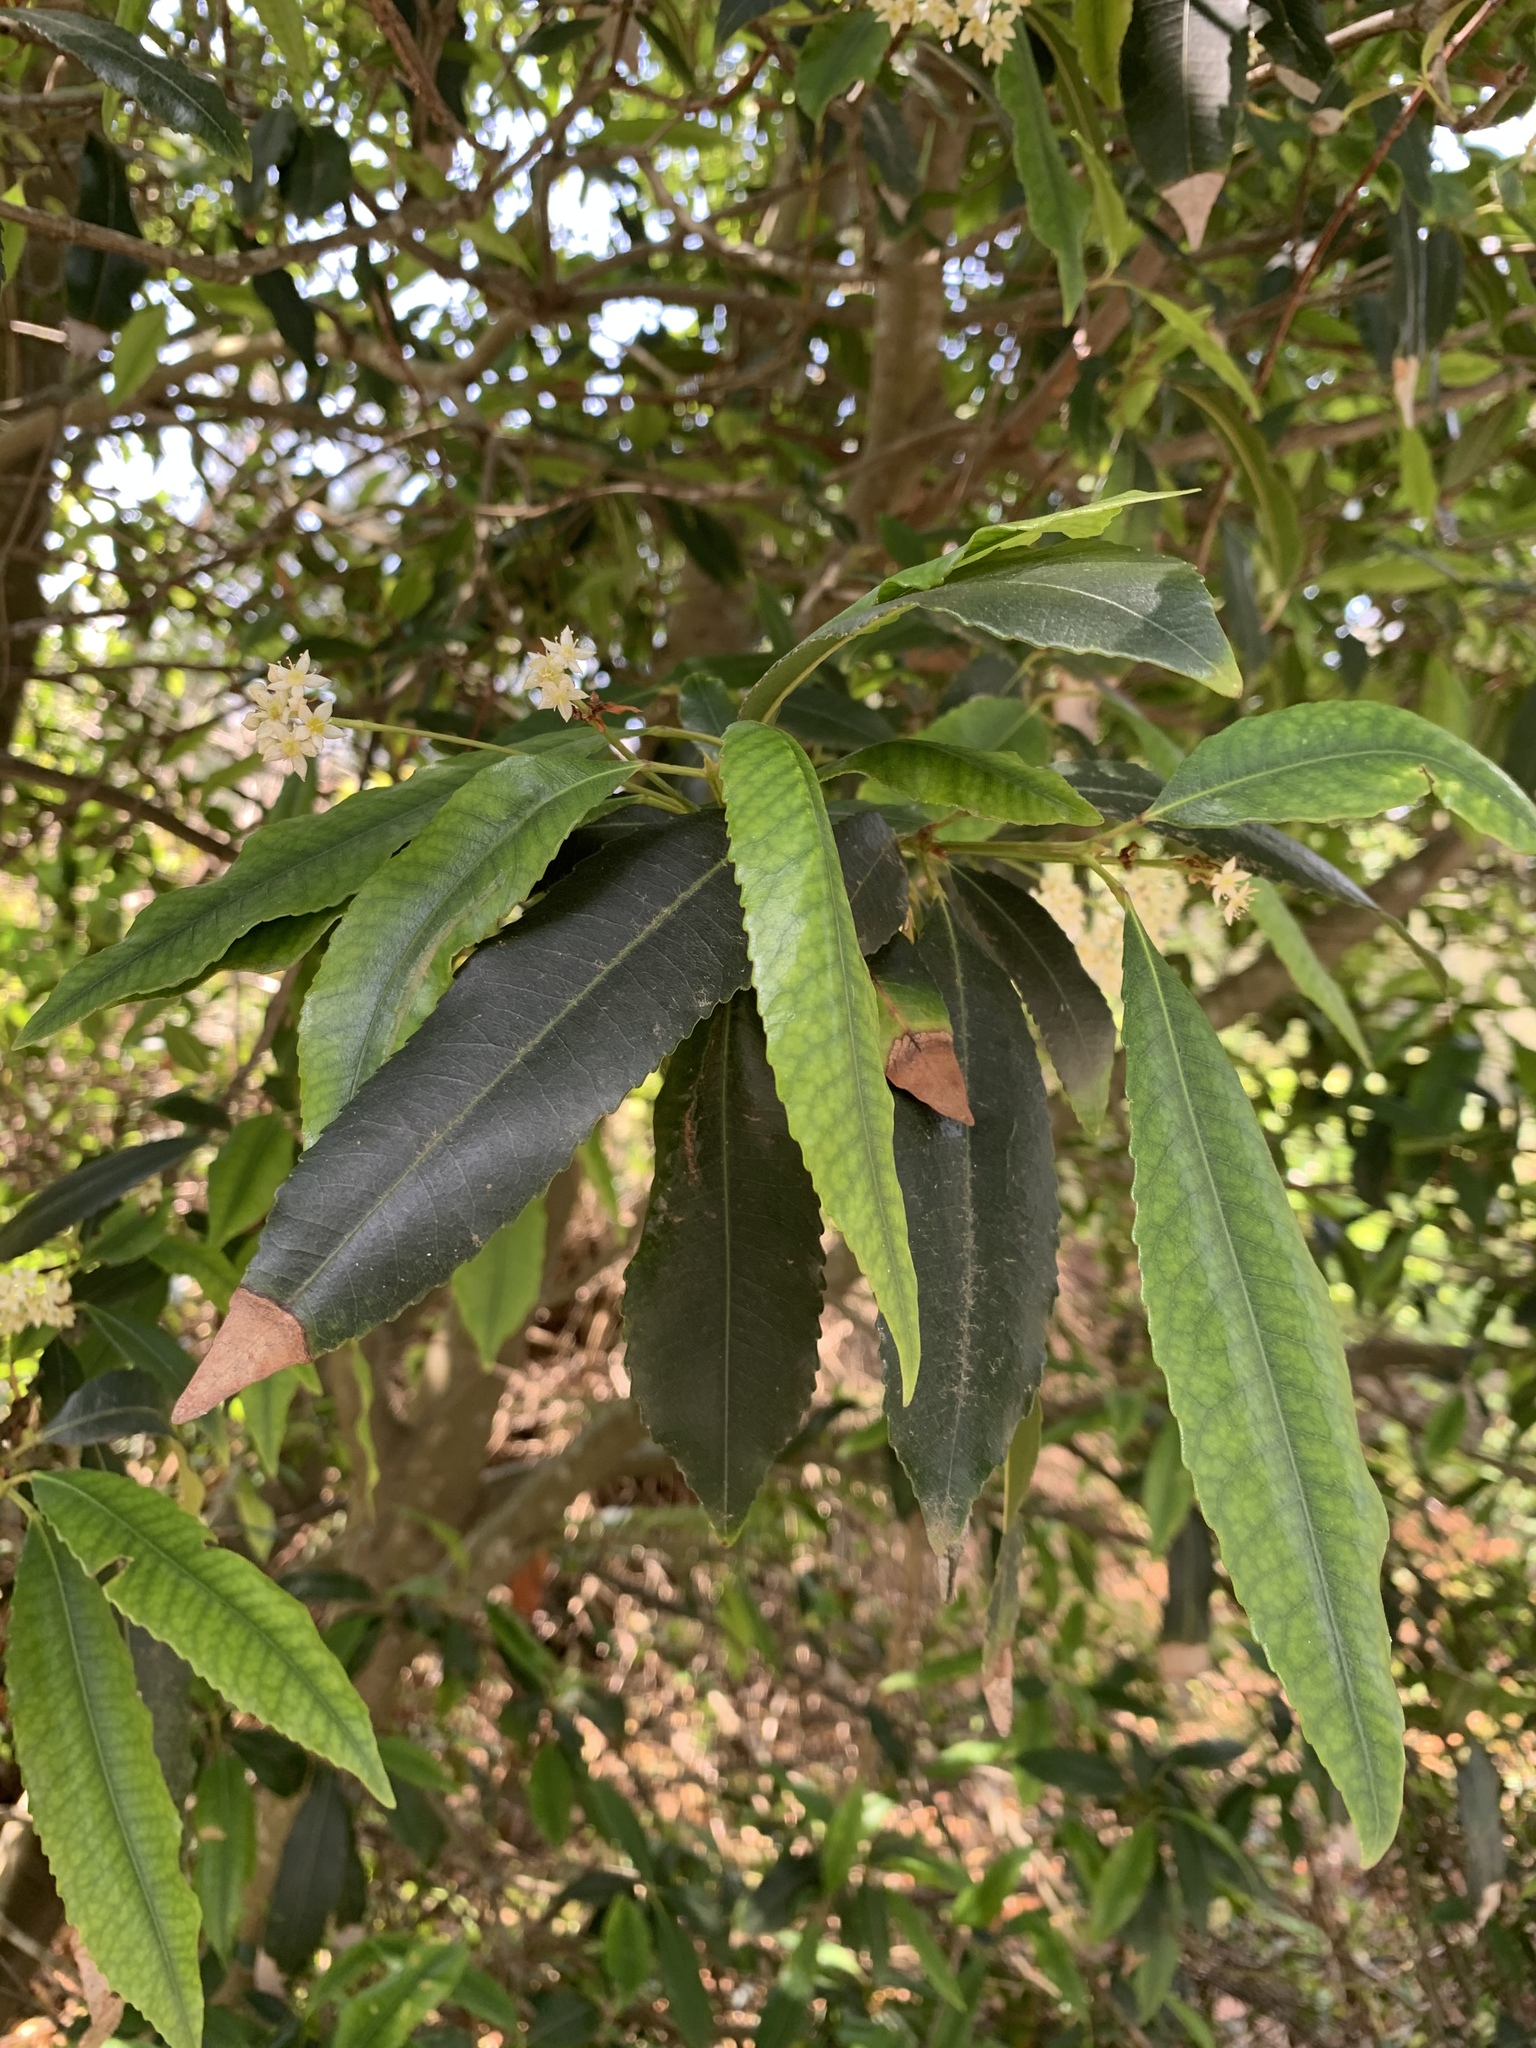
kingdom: Plantae
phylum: Tracheophyta
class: Magnoliopsida
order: Oxalidales
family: Cunoniaceae
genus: Ceratopetalum
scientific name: Ceratopetalum apetalum
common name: Scented satinwood
